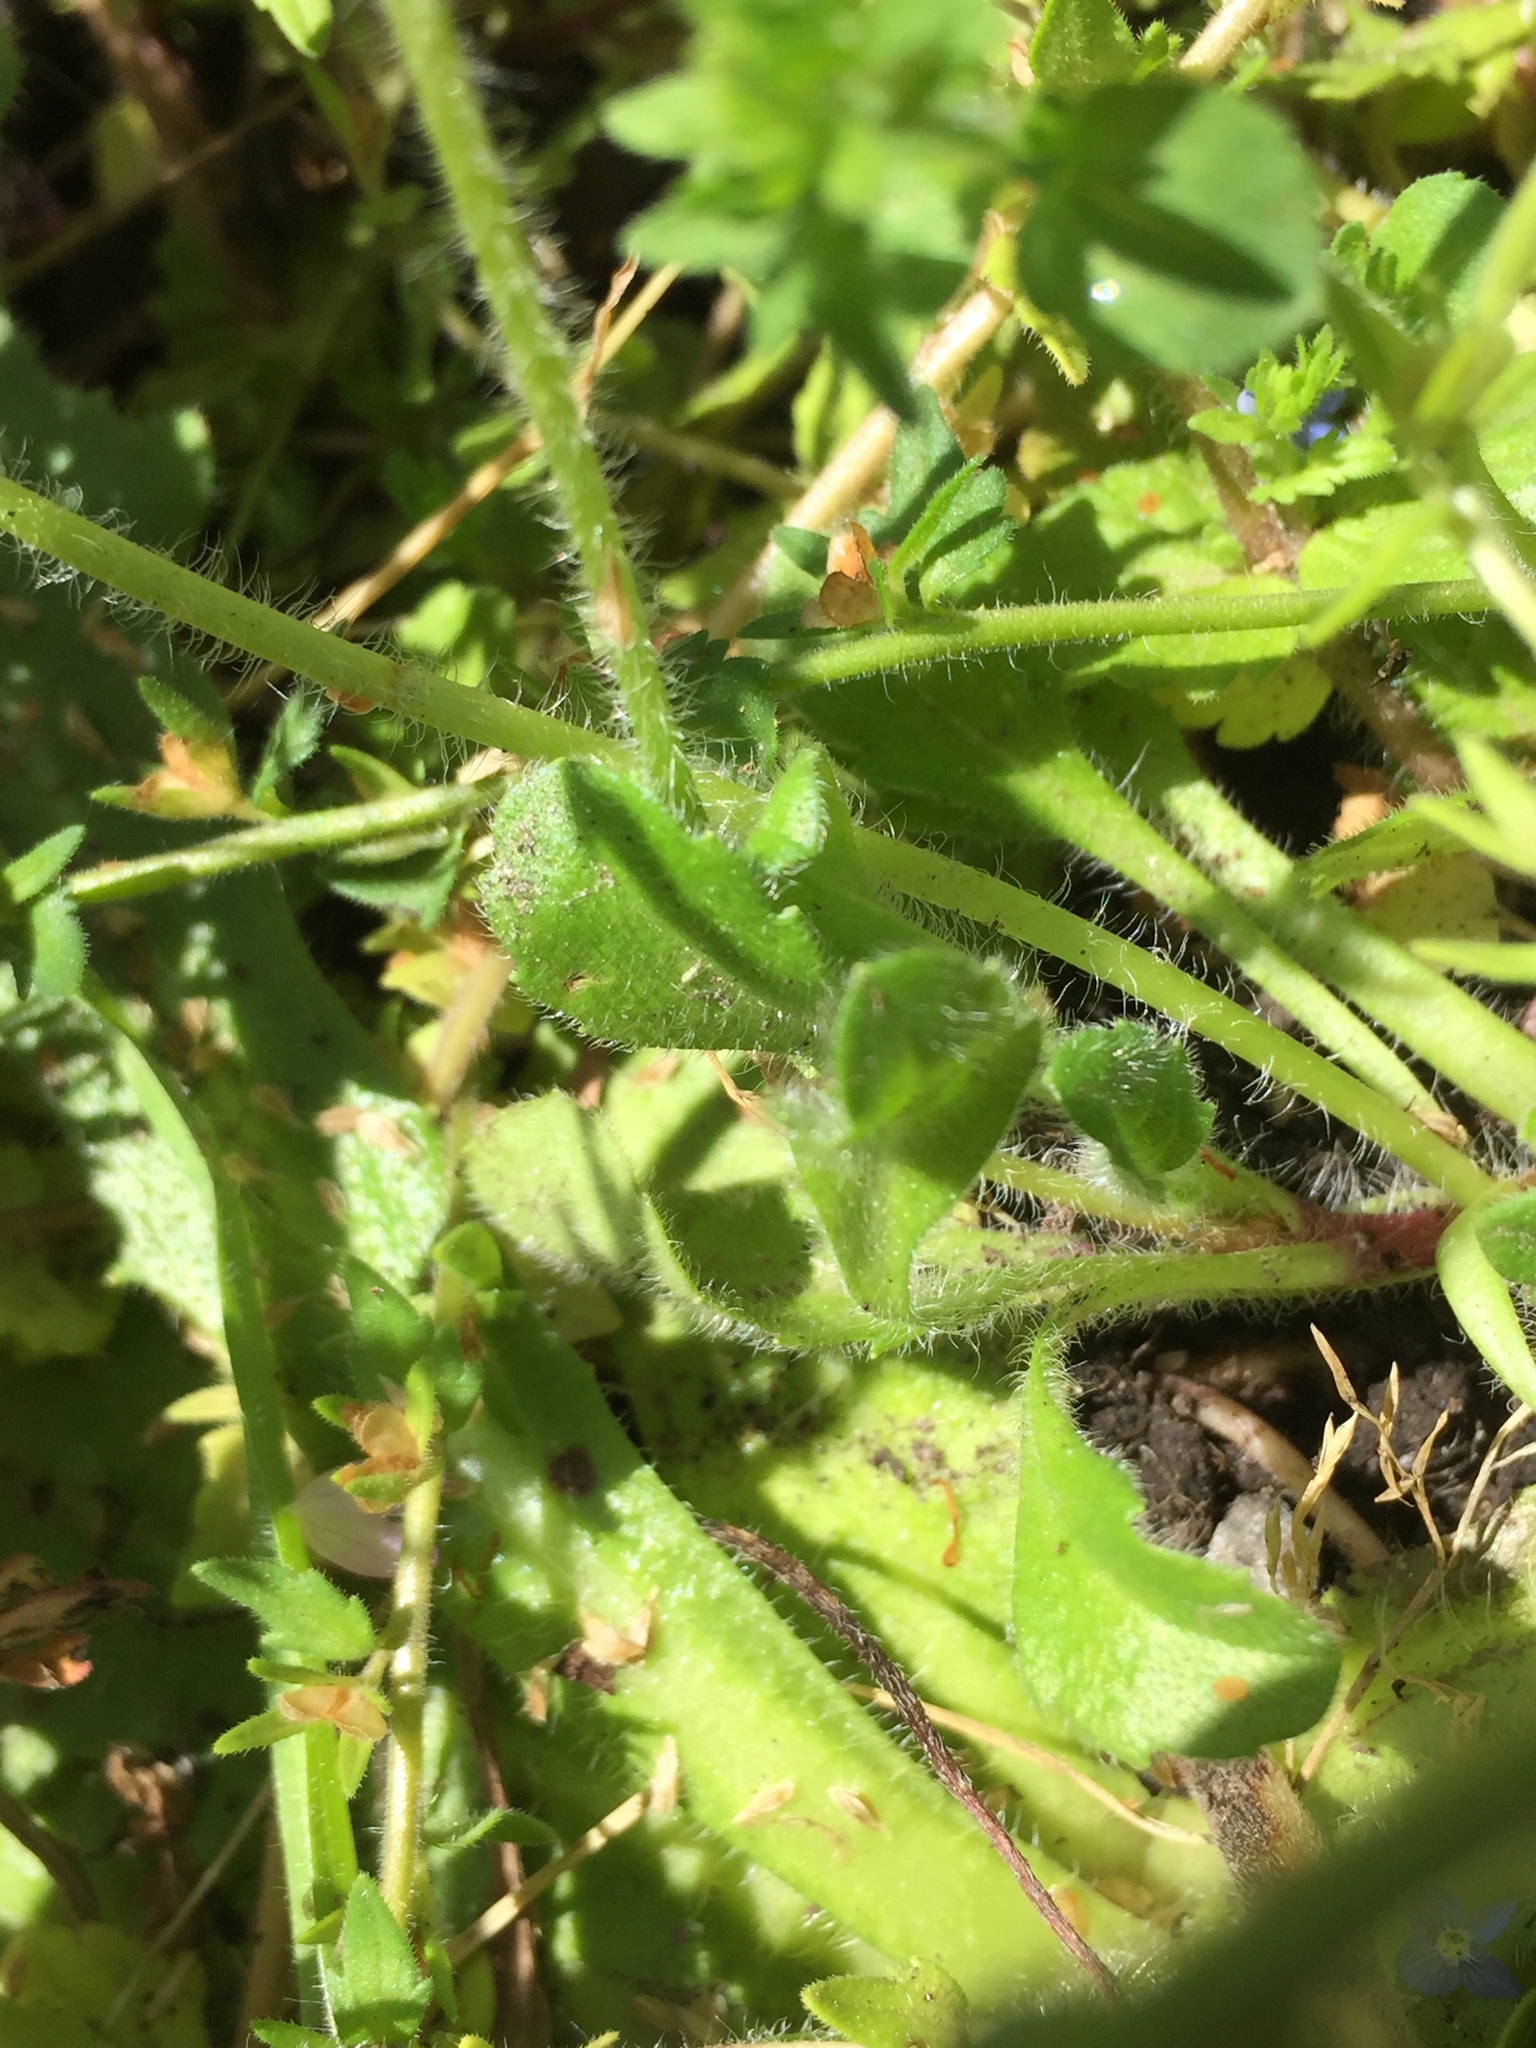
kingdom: Plantae
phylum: Tracheophyta
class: Magnoliopsida
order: Asterales
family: Asteraceae
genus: Bellis
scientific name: Bellis perennis
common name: Lawndaisy
